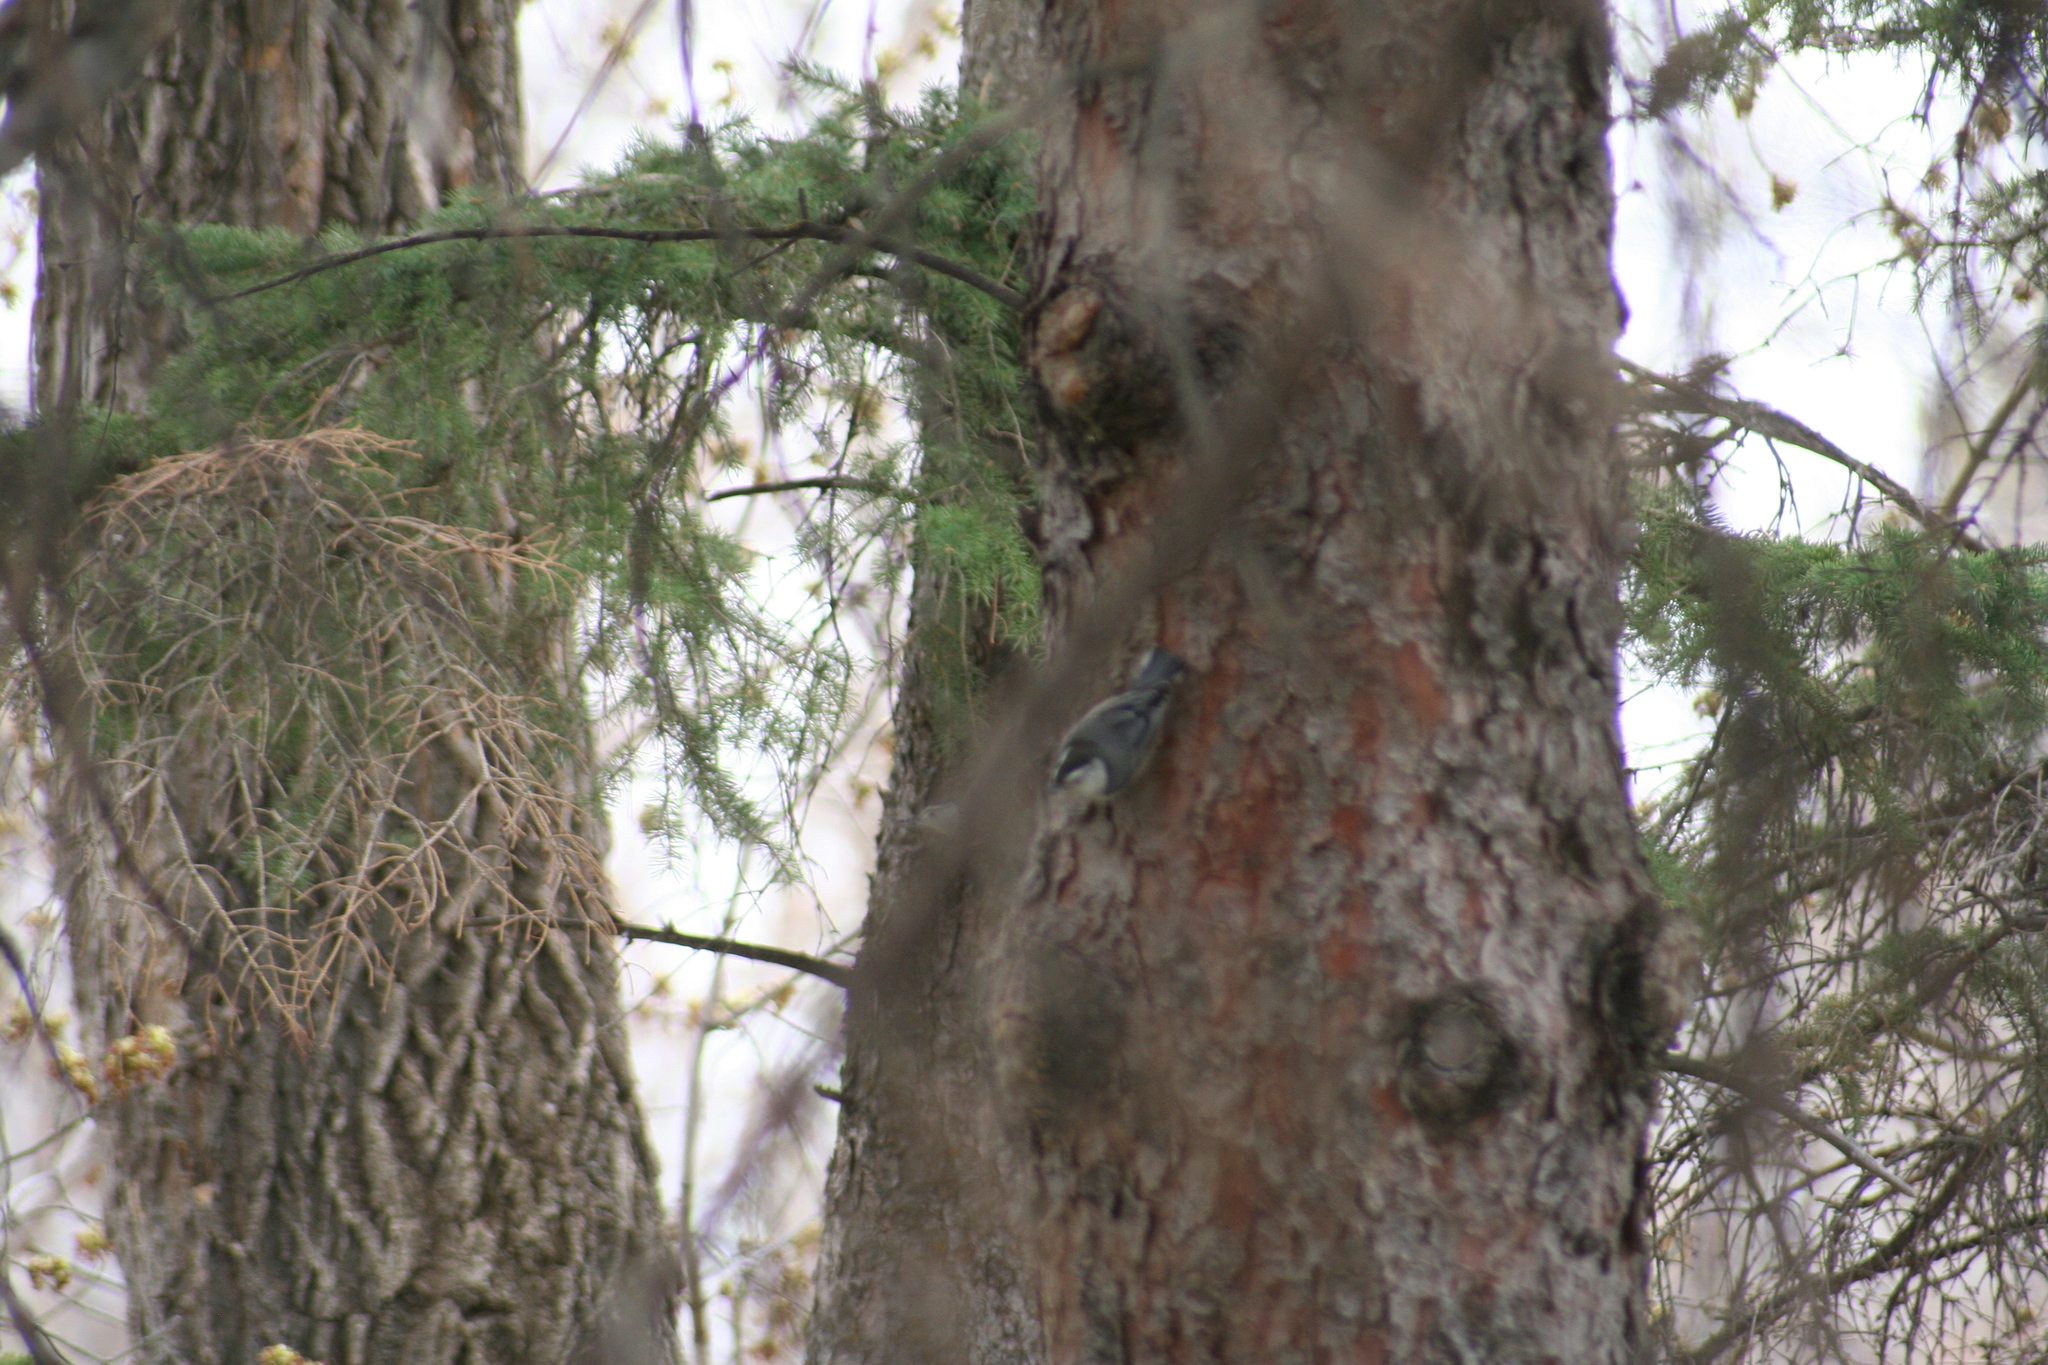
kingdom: Animalia
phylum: Chordata
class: Aves
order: Passeriformes
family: Sittidae
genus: Sitta
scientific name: Sitta carolinensis
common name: White-breasted nuthatch
